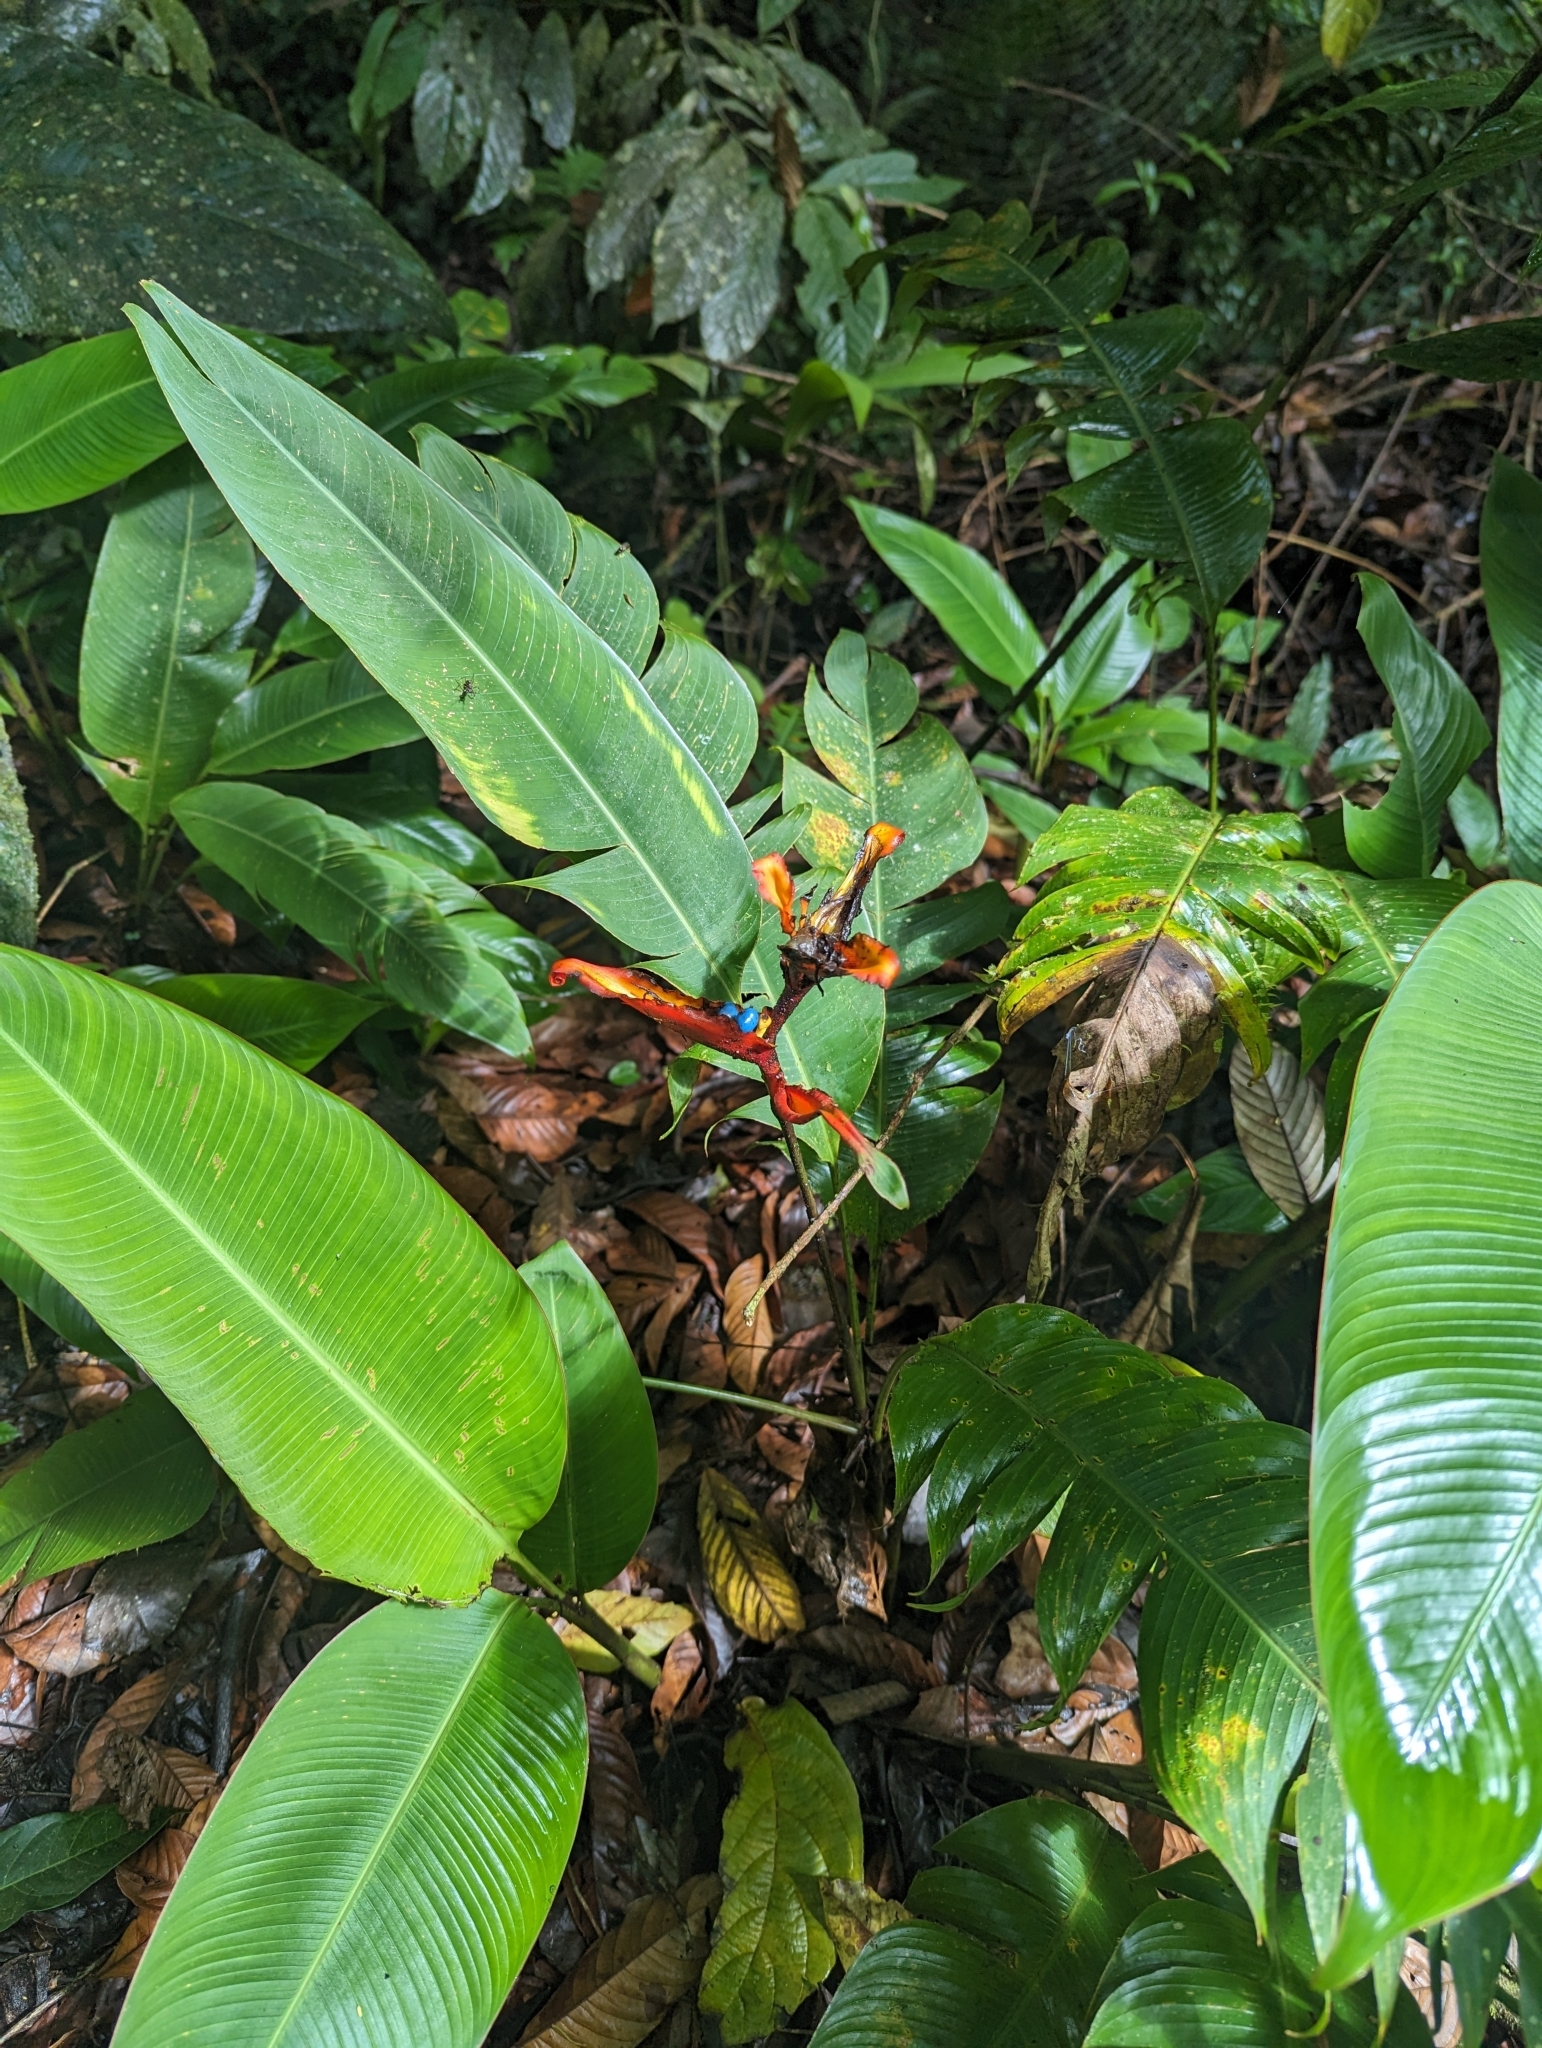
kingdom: Plantae
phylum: Tracheophyta
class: Liliopsida
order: Zingiberales
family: Heliconiaceae
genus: Heliconia
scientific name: Heliconia mathiasiae
